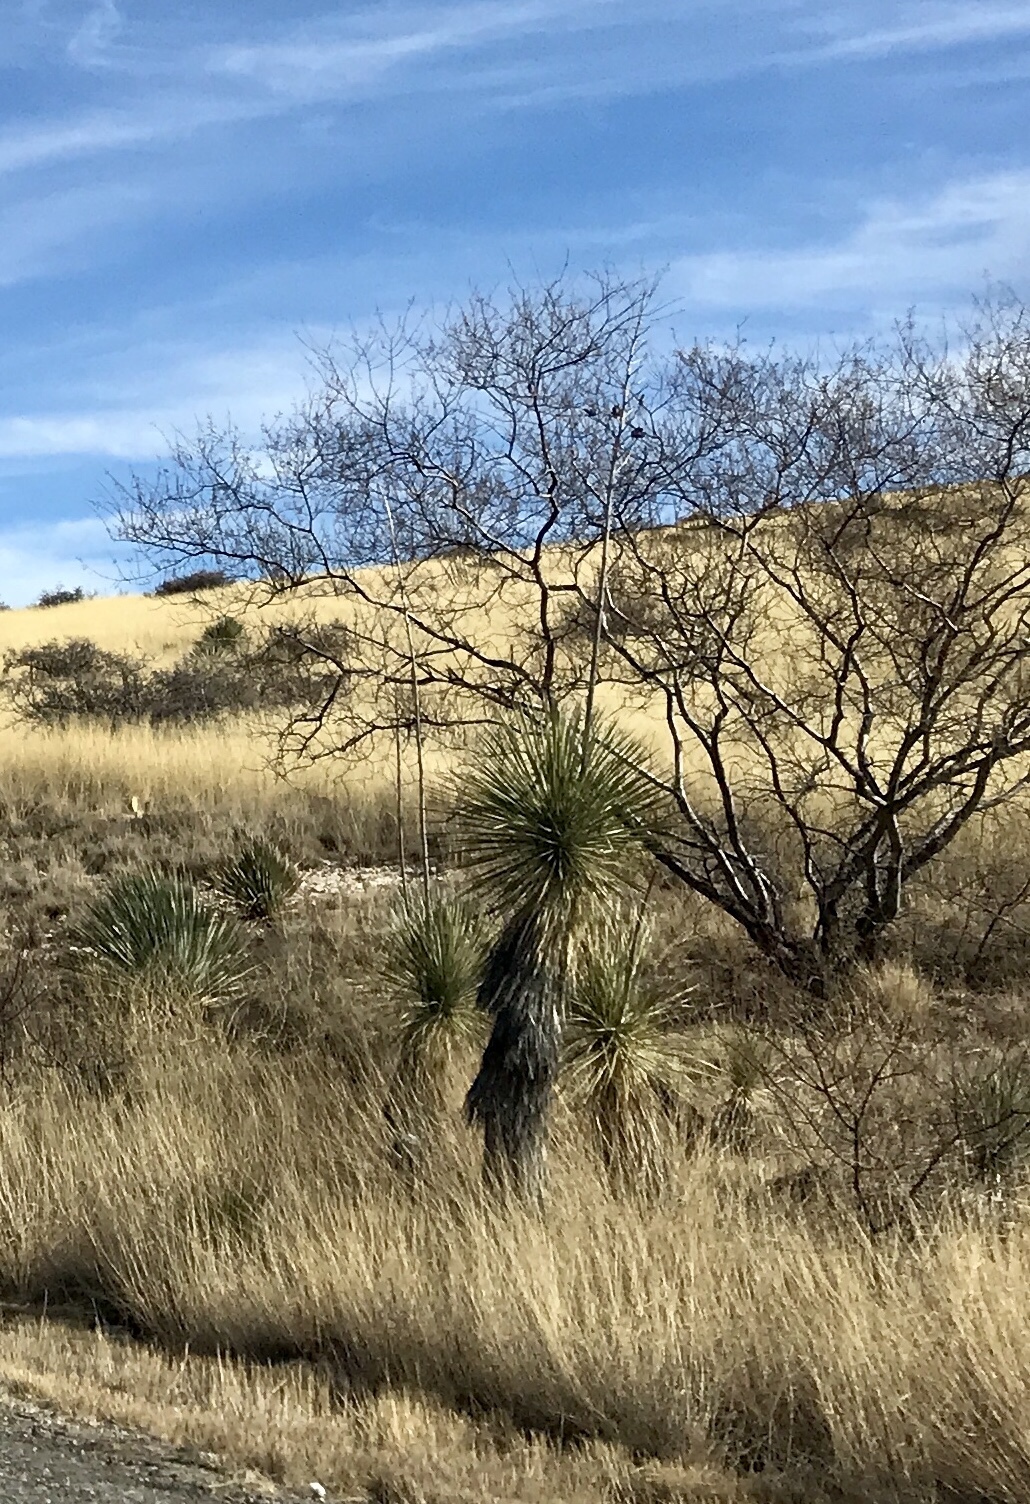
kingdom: Plantae
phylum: Tracheophyta
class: Liliopsida
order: Asparagales
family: Asparagaceae
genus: Yucca
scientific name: Yucca elata
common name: Palmella
